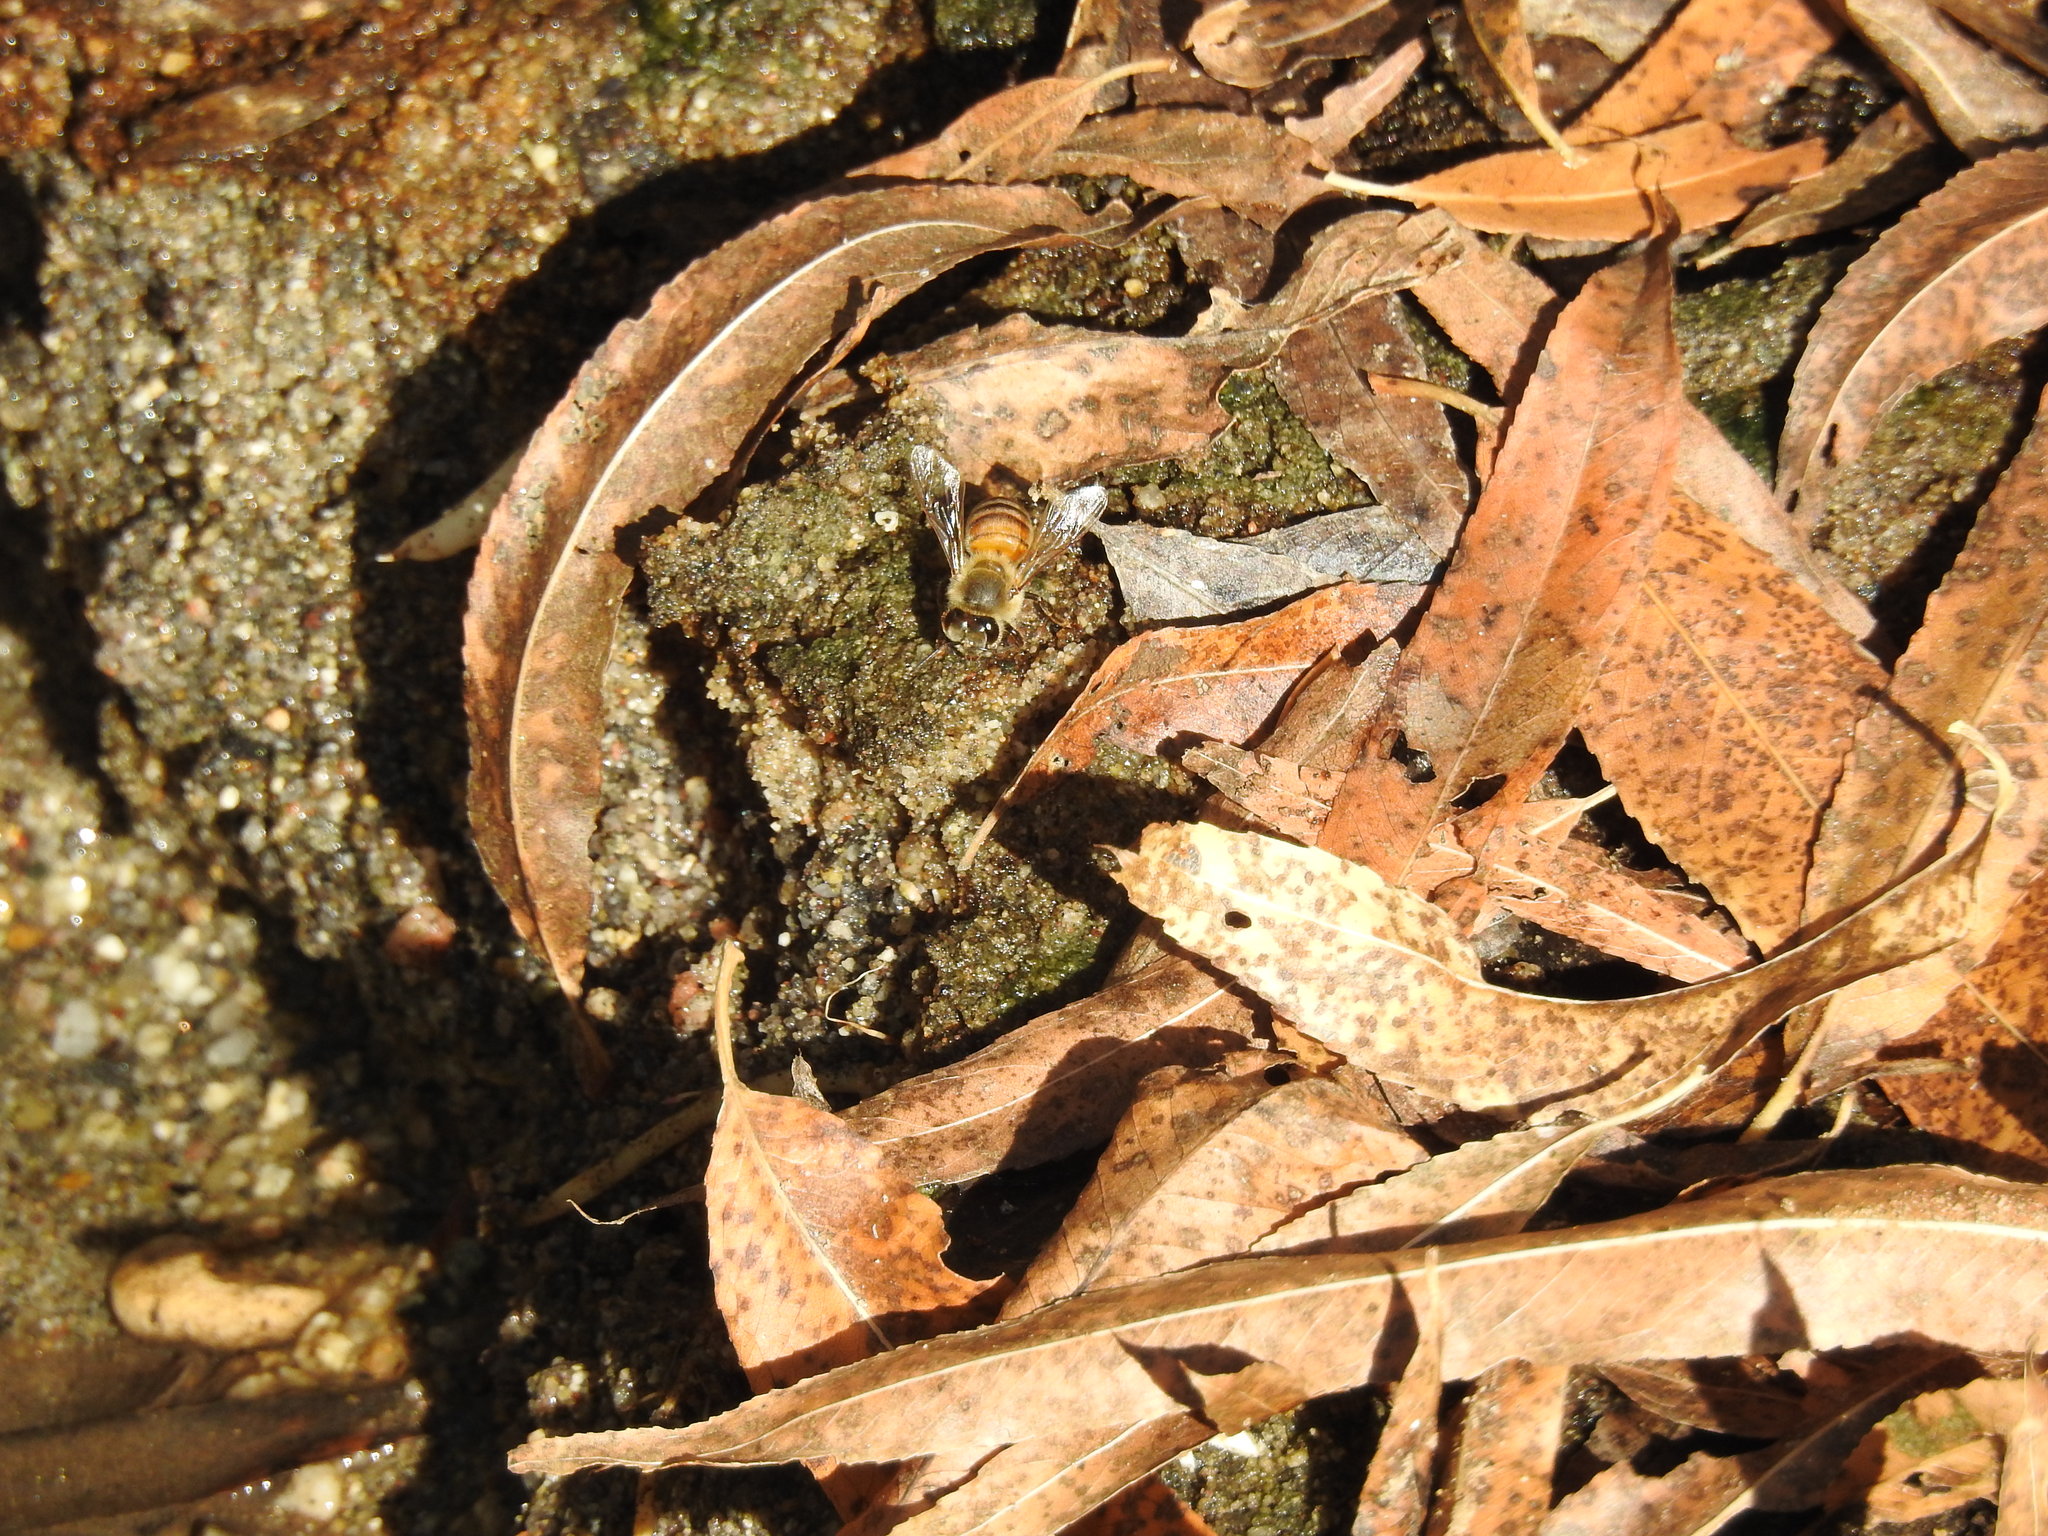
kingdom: Animalia
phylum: Arthropoda
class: Insecta
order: Hymenoptera
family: Apidae
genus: Apis
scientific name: Apis mellifera
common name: Honey bee
